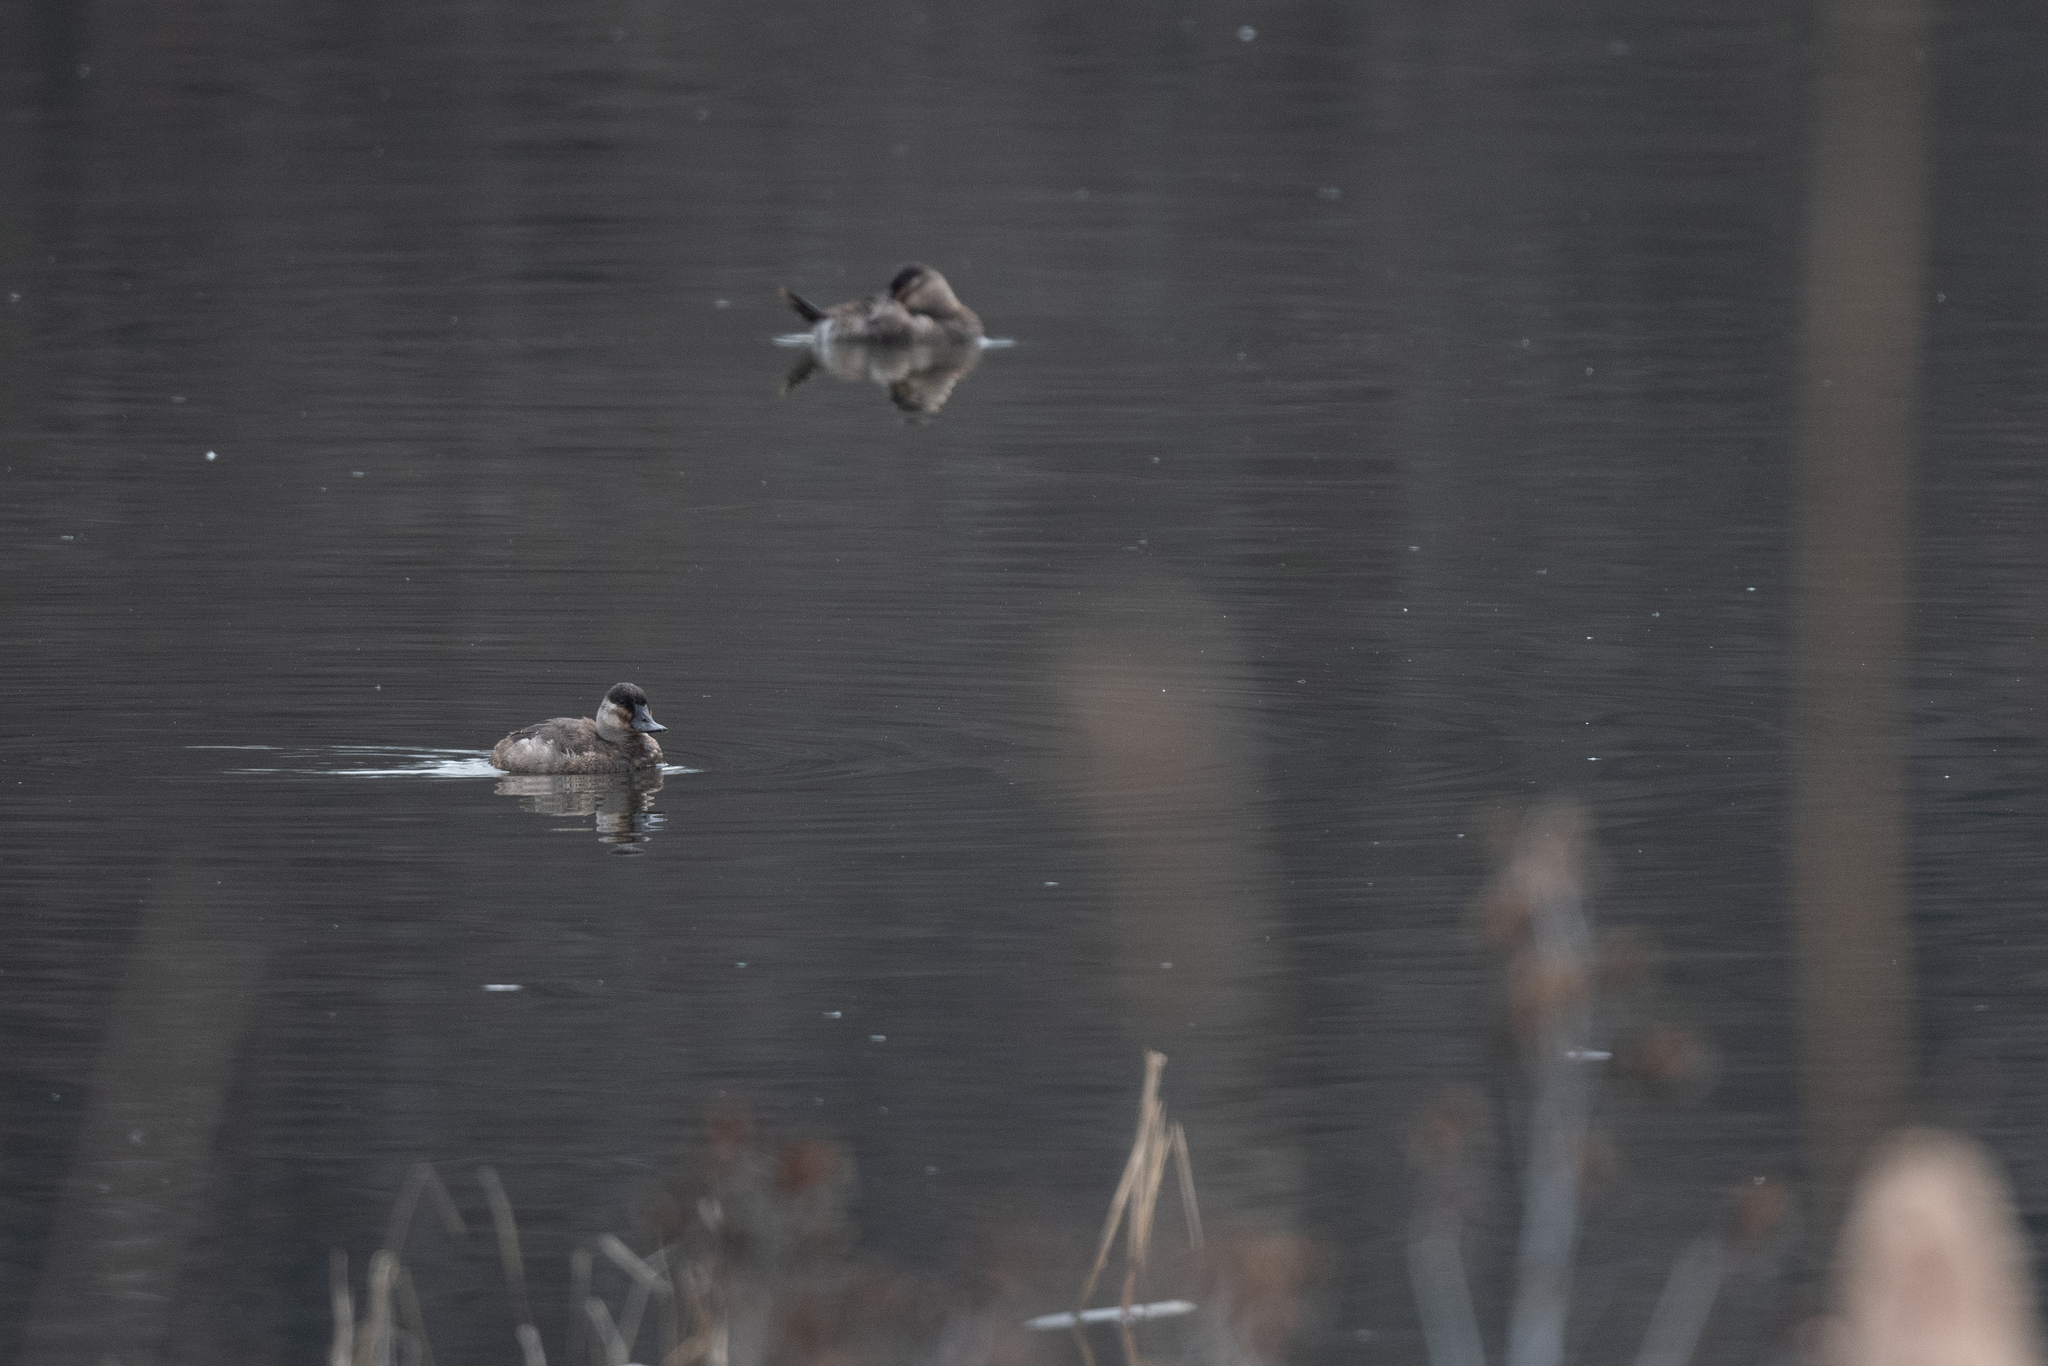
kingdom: Animalia
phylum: Chordata
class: Aves
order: Anseriformes
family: Anatidae
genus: Oxyura
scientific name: Oxyura jamaicensis
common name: Ruddy duck
